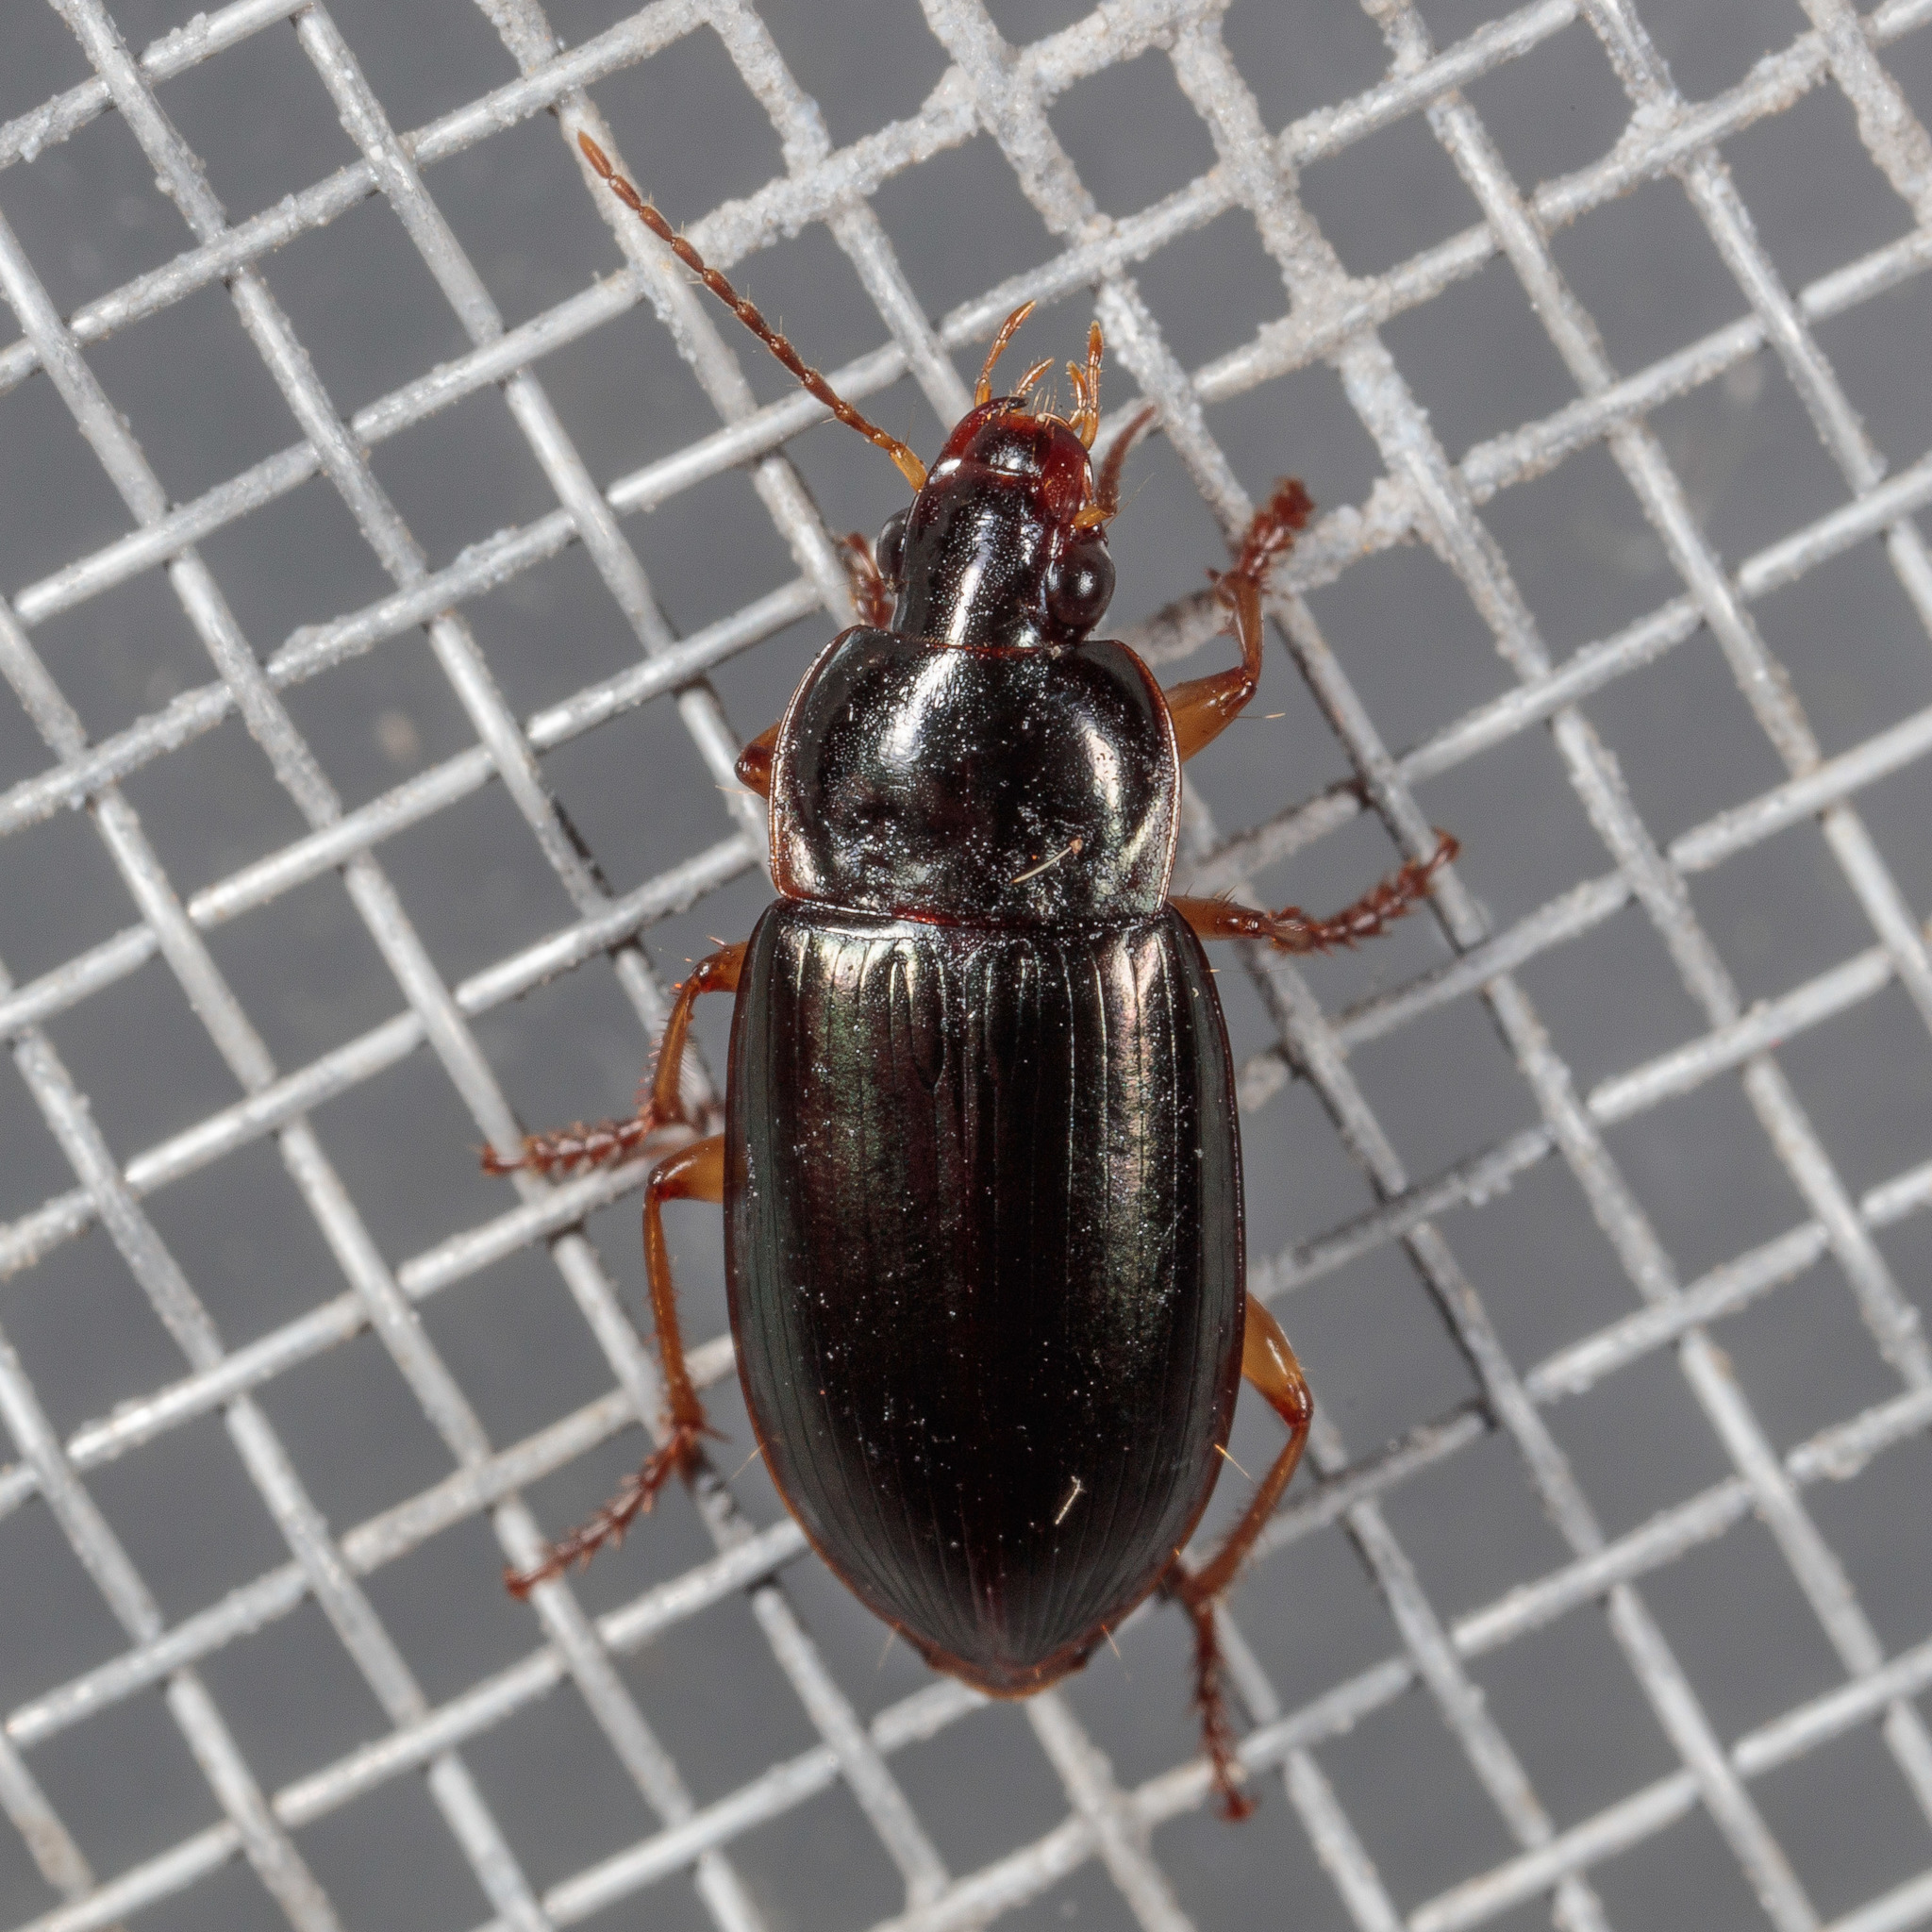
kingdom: Animalia
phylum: Arthropoda
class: Insecta
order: Coleoptera
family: Carabidae
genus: Notiobia
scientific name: Notiobia terminata
